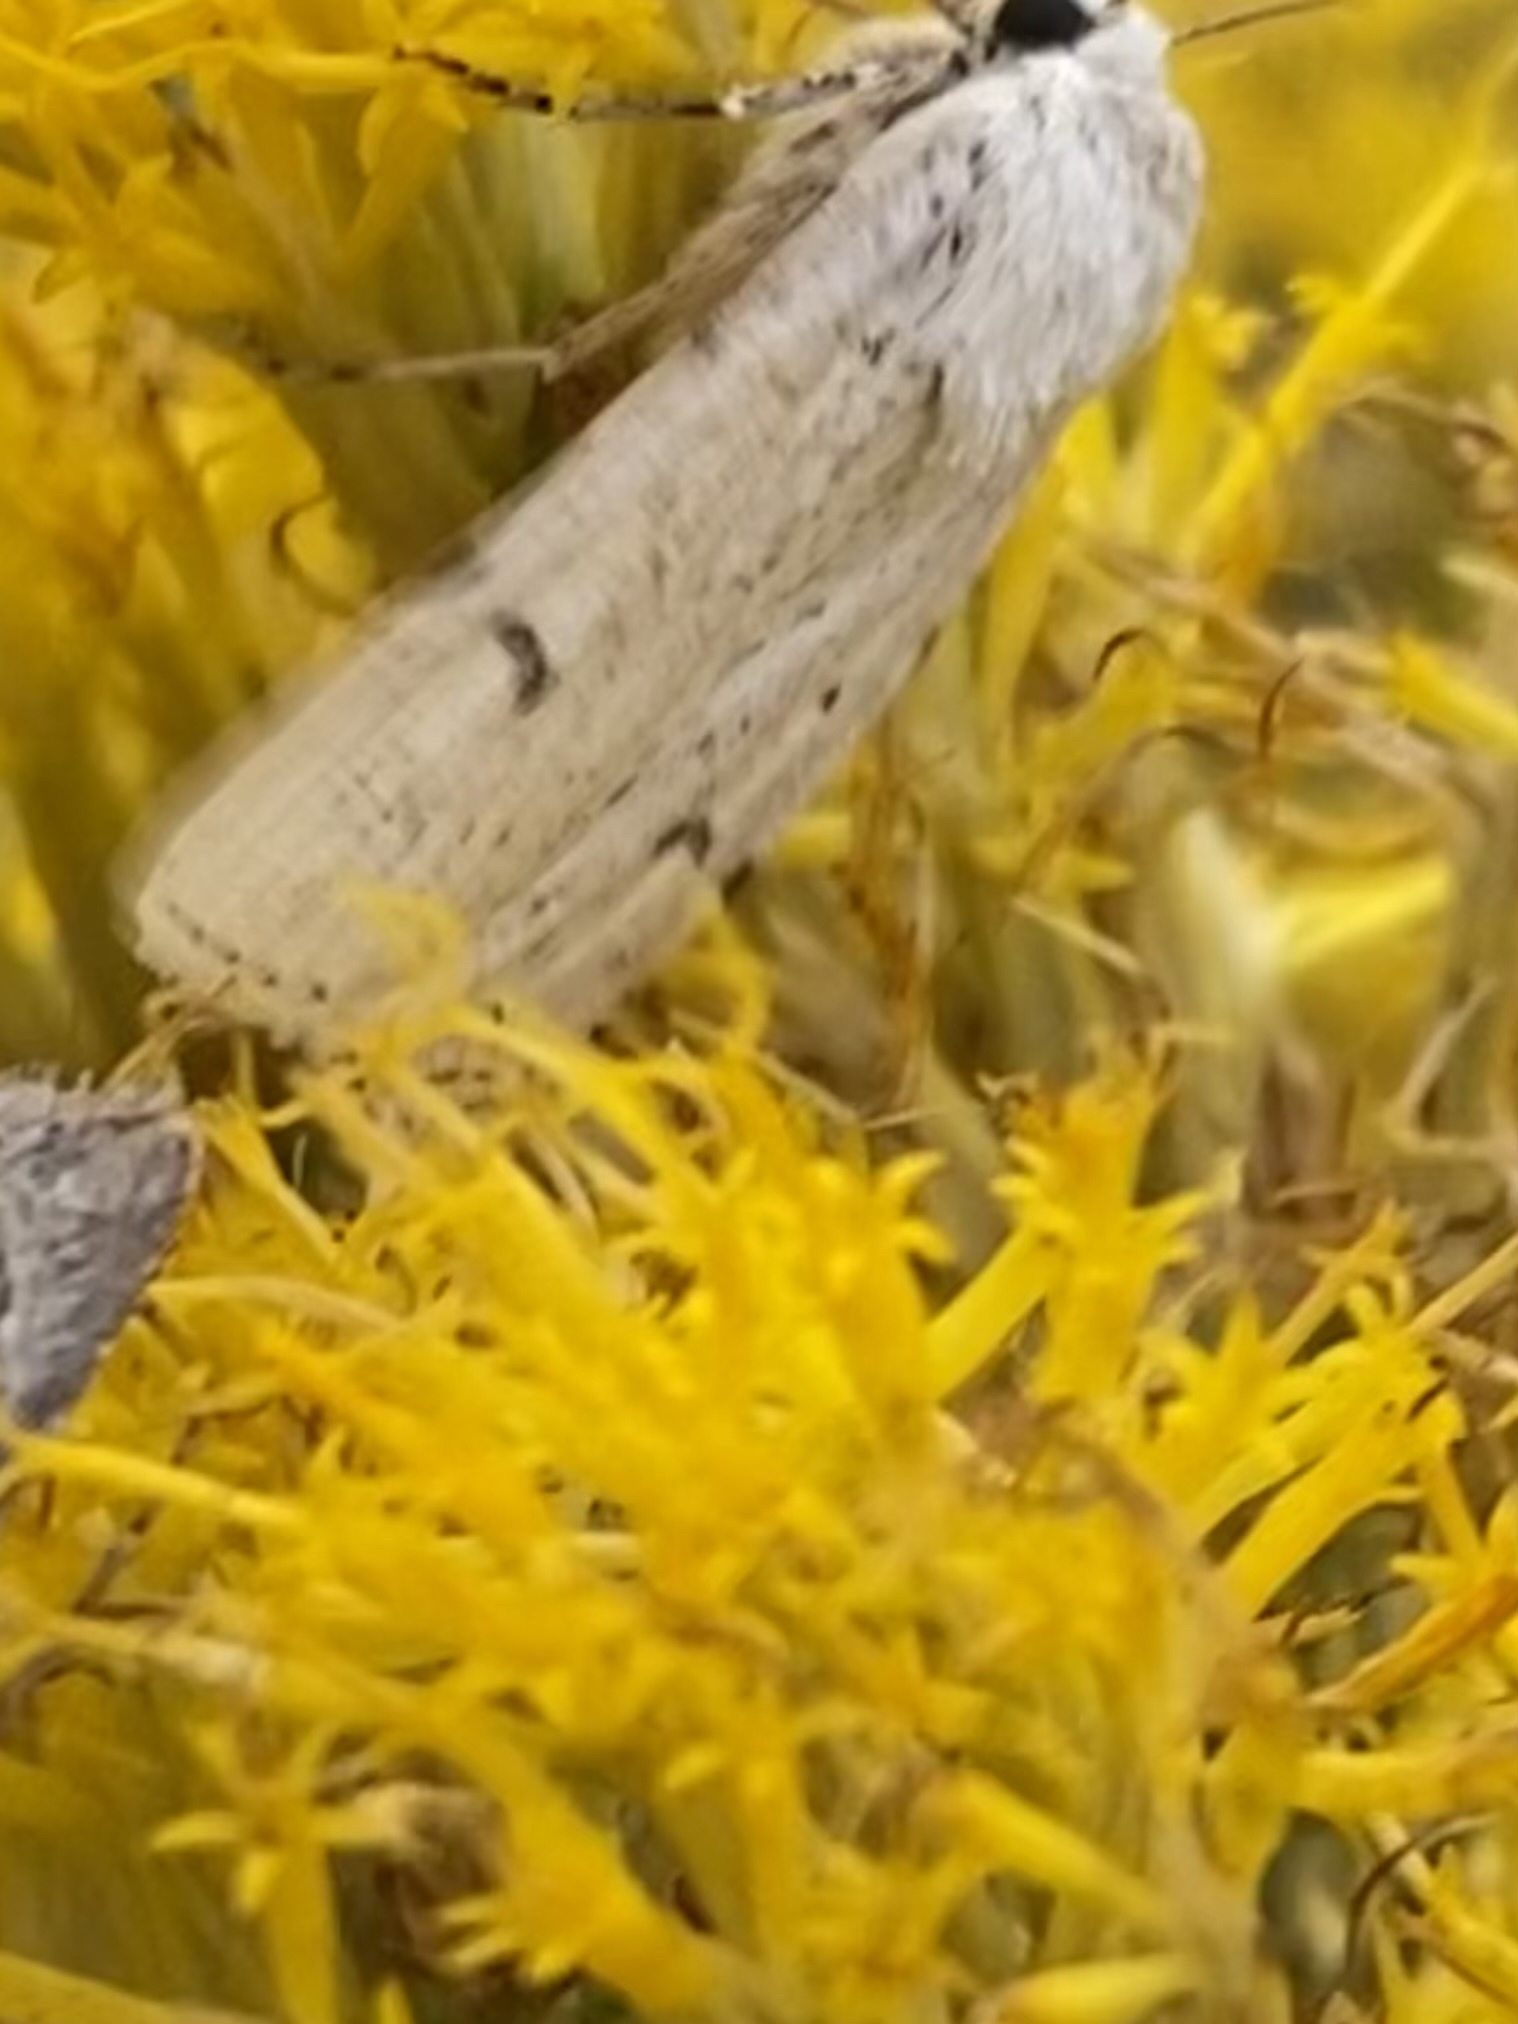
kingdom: Animalia
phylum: Arthropoda
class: Insecta
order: Lepidoptera
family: Noctuidae
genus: Euxoa
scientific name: Euxoa catenula
